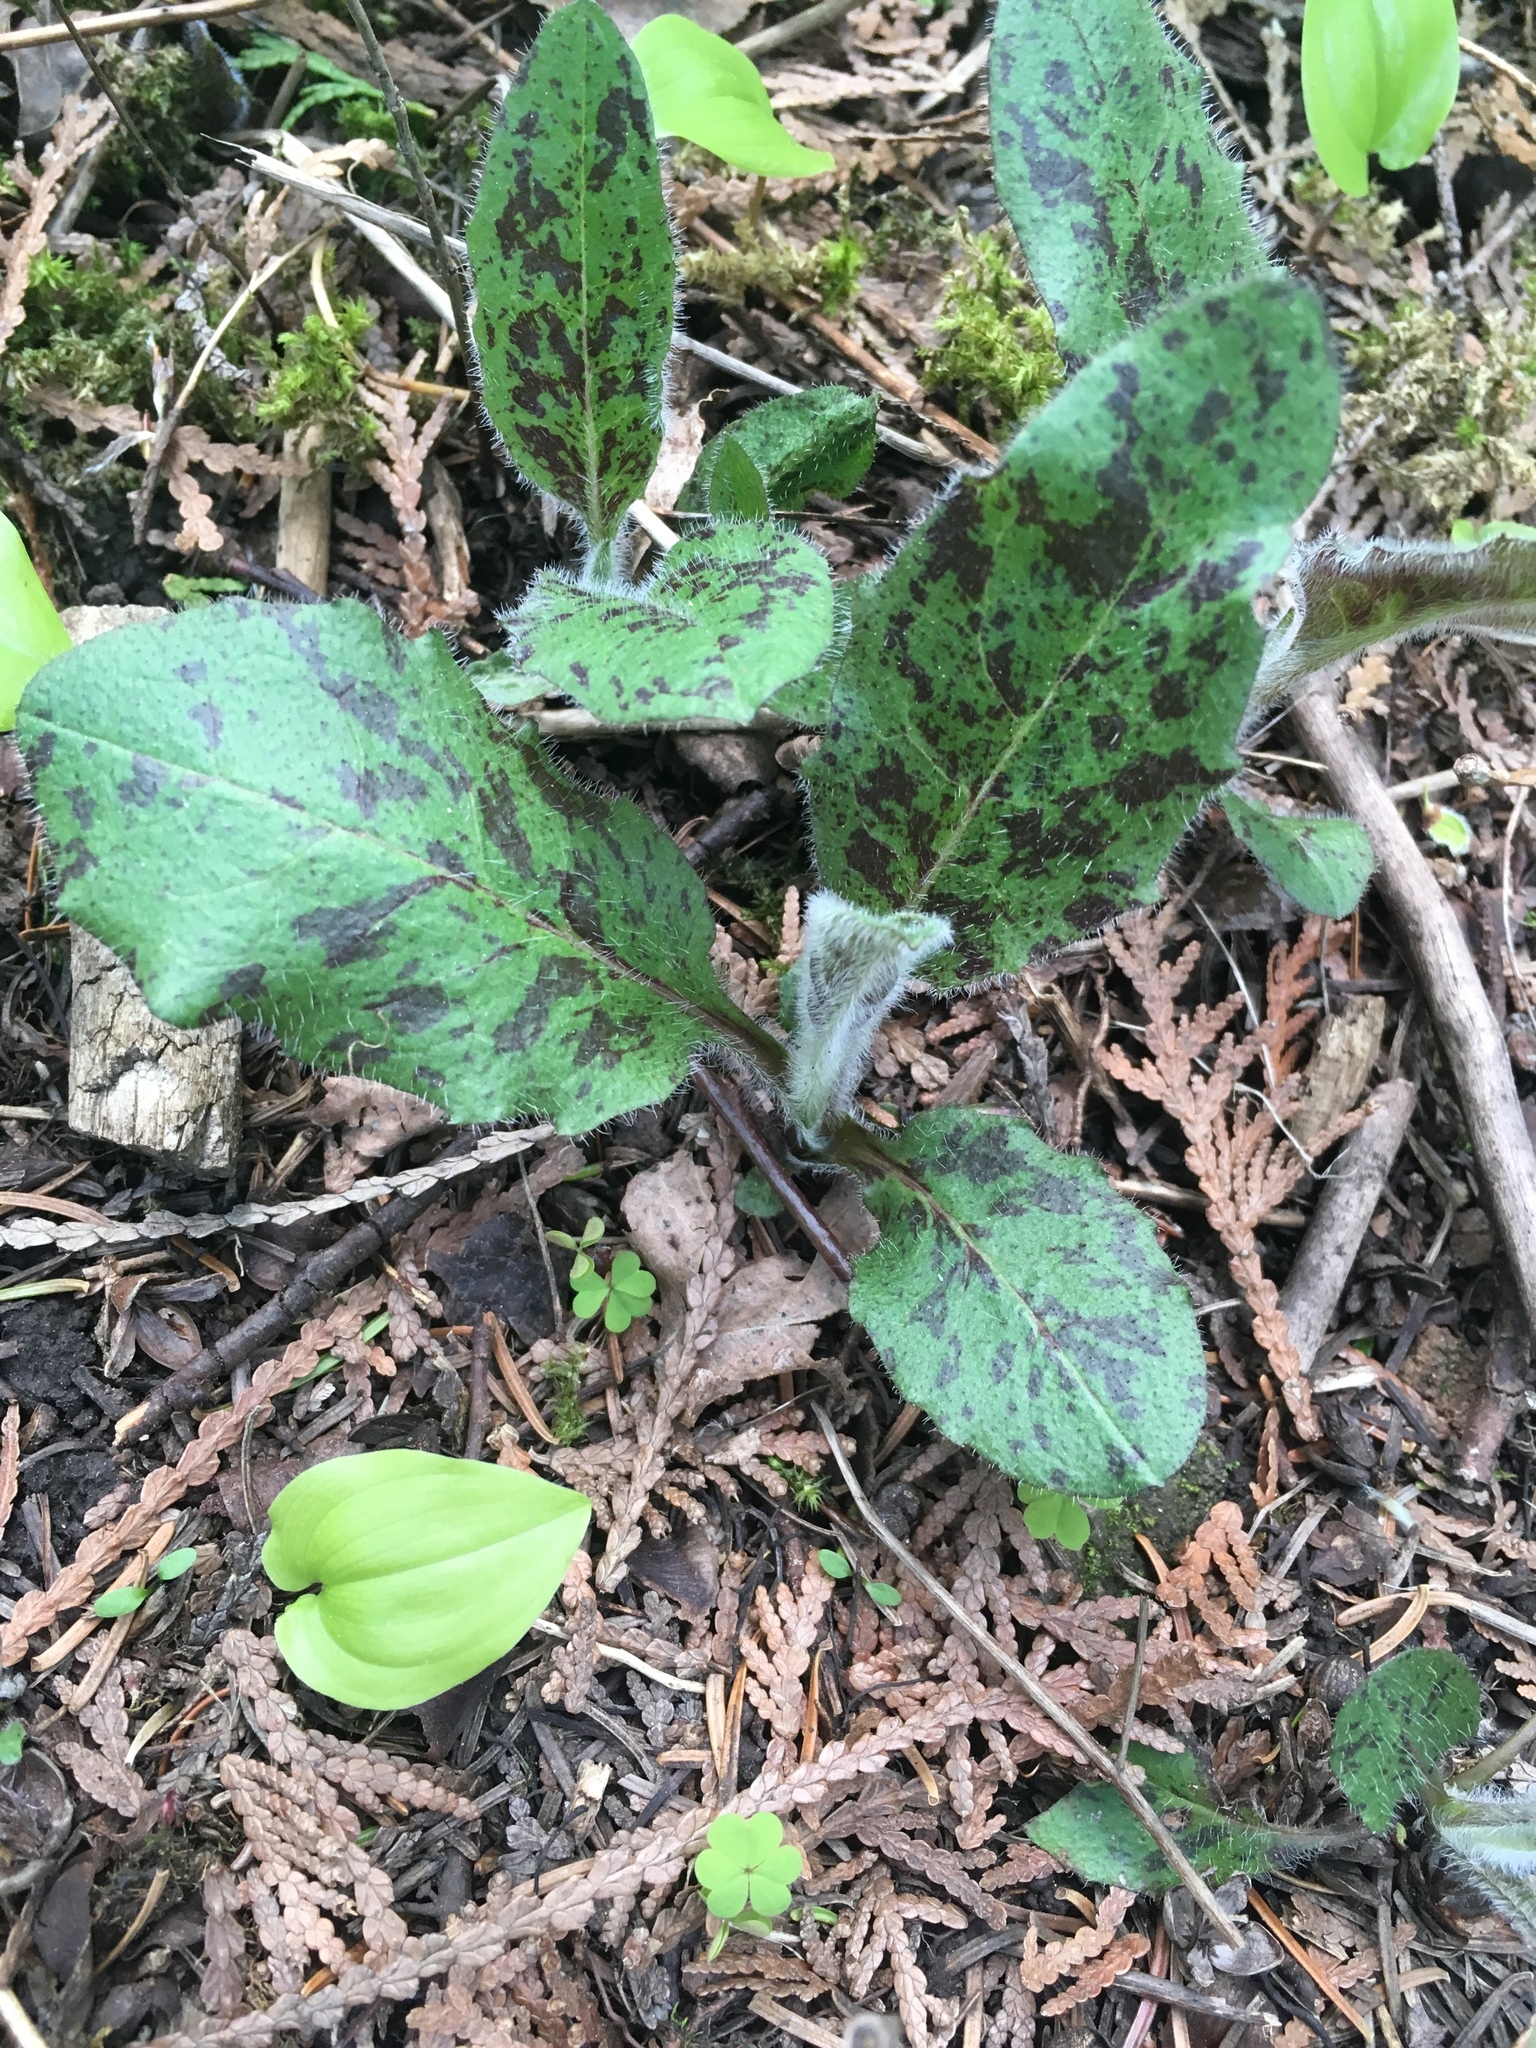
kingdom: Plantae
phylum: Tracheophyta
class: Magnoliopsida
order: Asterales
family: Asteraceae
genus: Hieracium
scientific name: Hieracium maculatum
